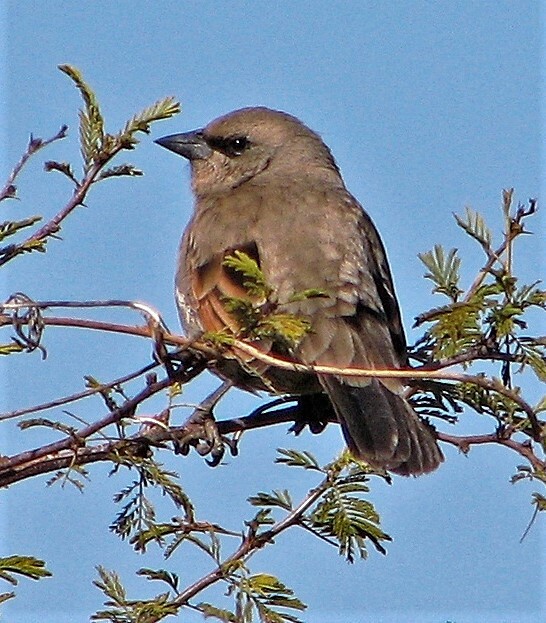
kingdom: Animalia
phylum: Chordata
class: Aves
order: Passeriformes
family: Icteridae
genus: Agelaioides
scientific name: Agelaioides badius
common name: Baywing
